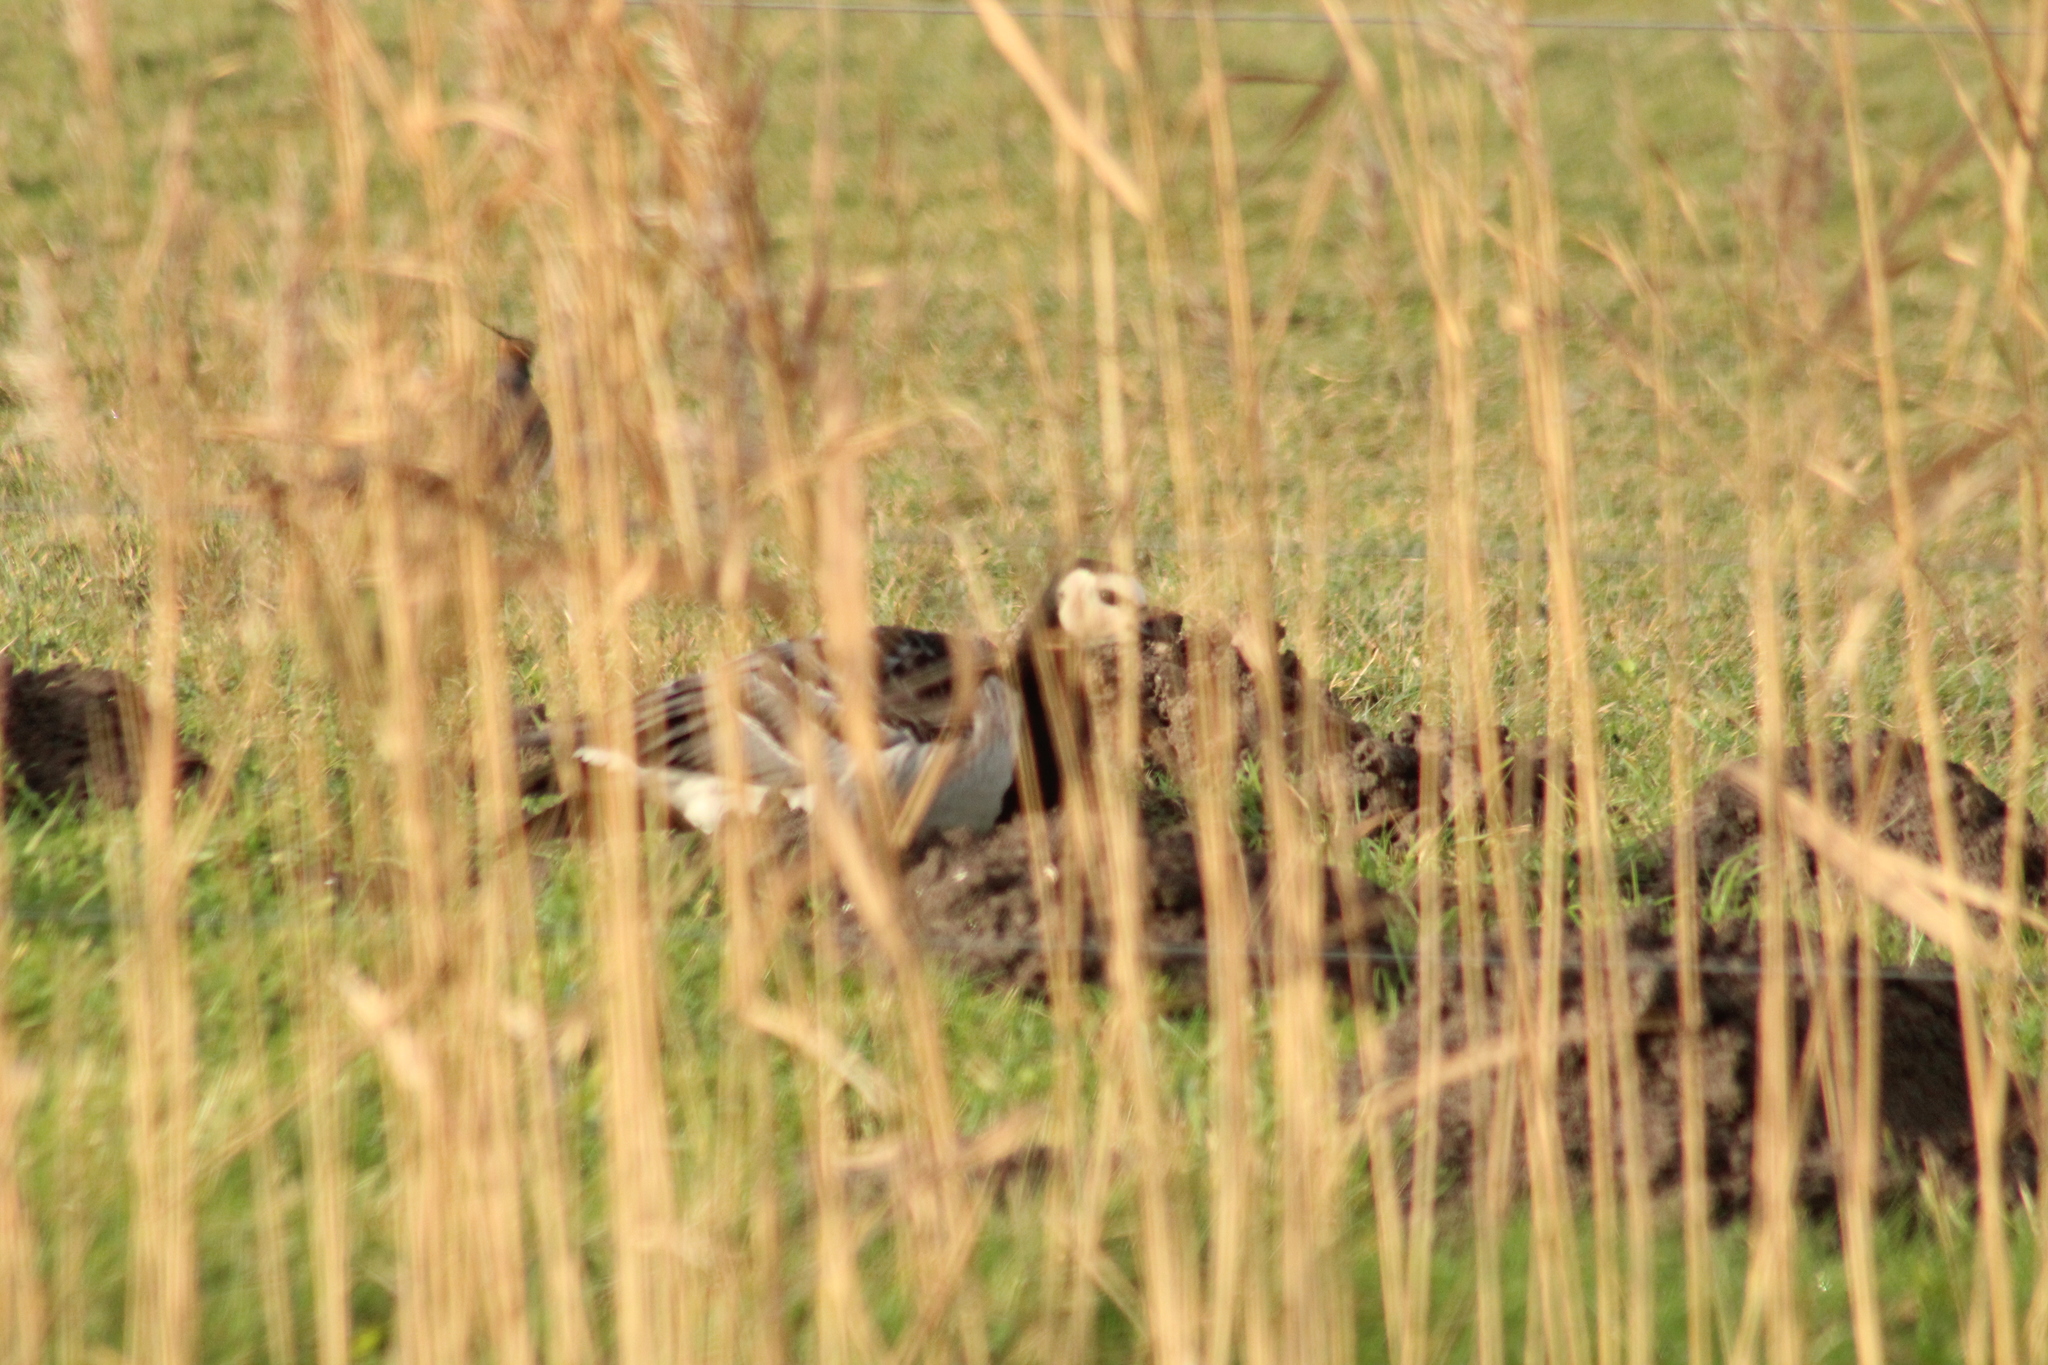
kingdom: Animalia
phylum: Chordata
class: Aves
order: Anseriformes
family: Anatidae
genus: Branta
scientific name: Branta leucopsis
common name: Barnacle goose
